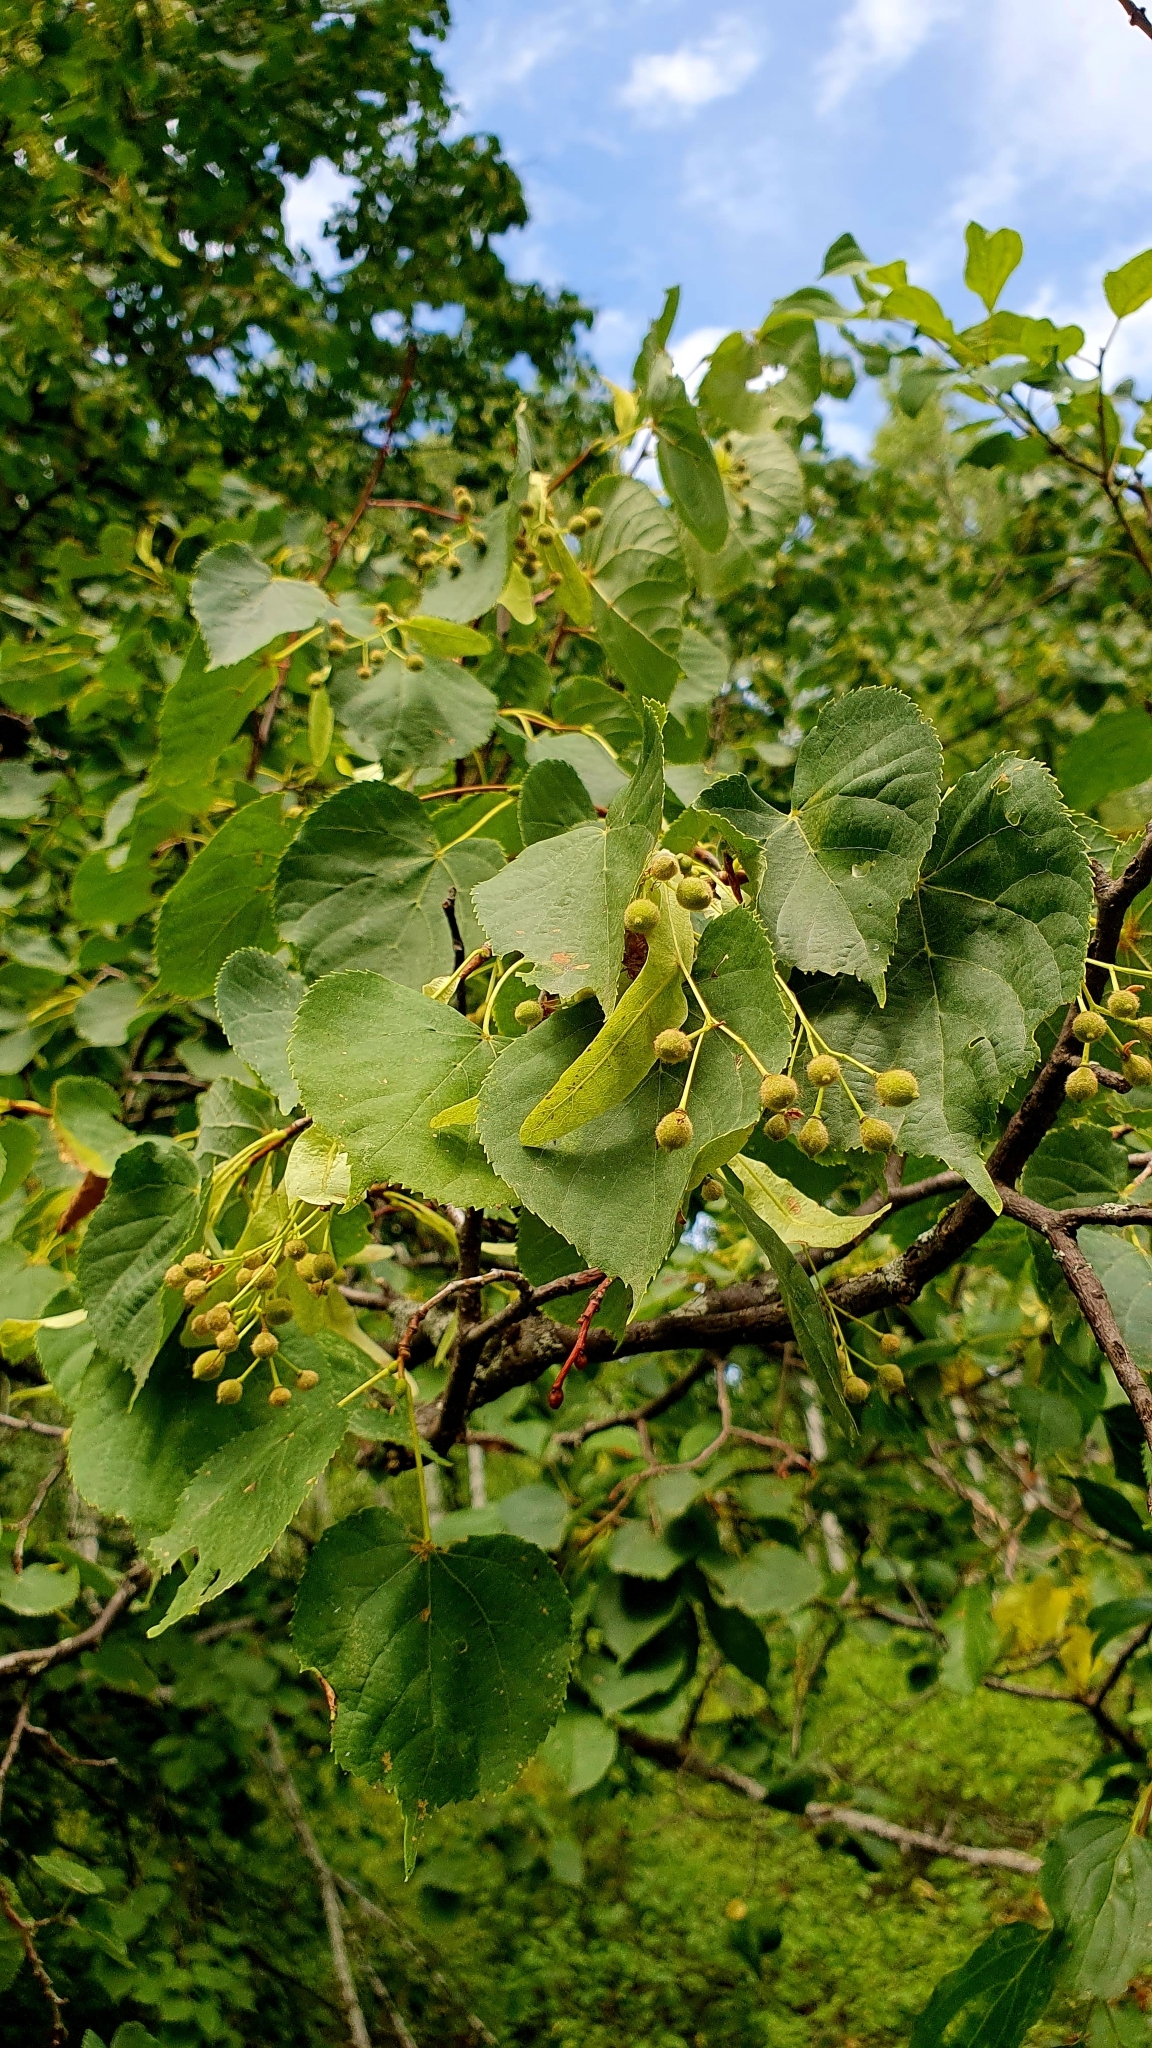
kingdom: Plantae
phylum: Tracheophyta
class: Magnoliopsida
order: Malvales
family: Malvaceae
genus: Tilia
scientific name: Tilia cordata
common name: Small-leaved lime
